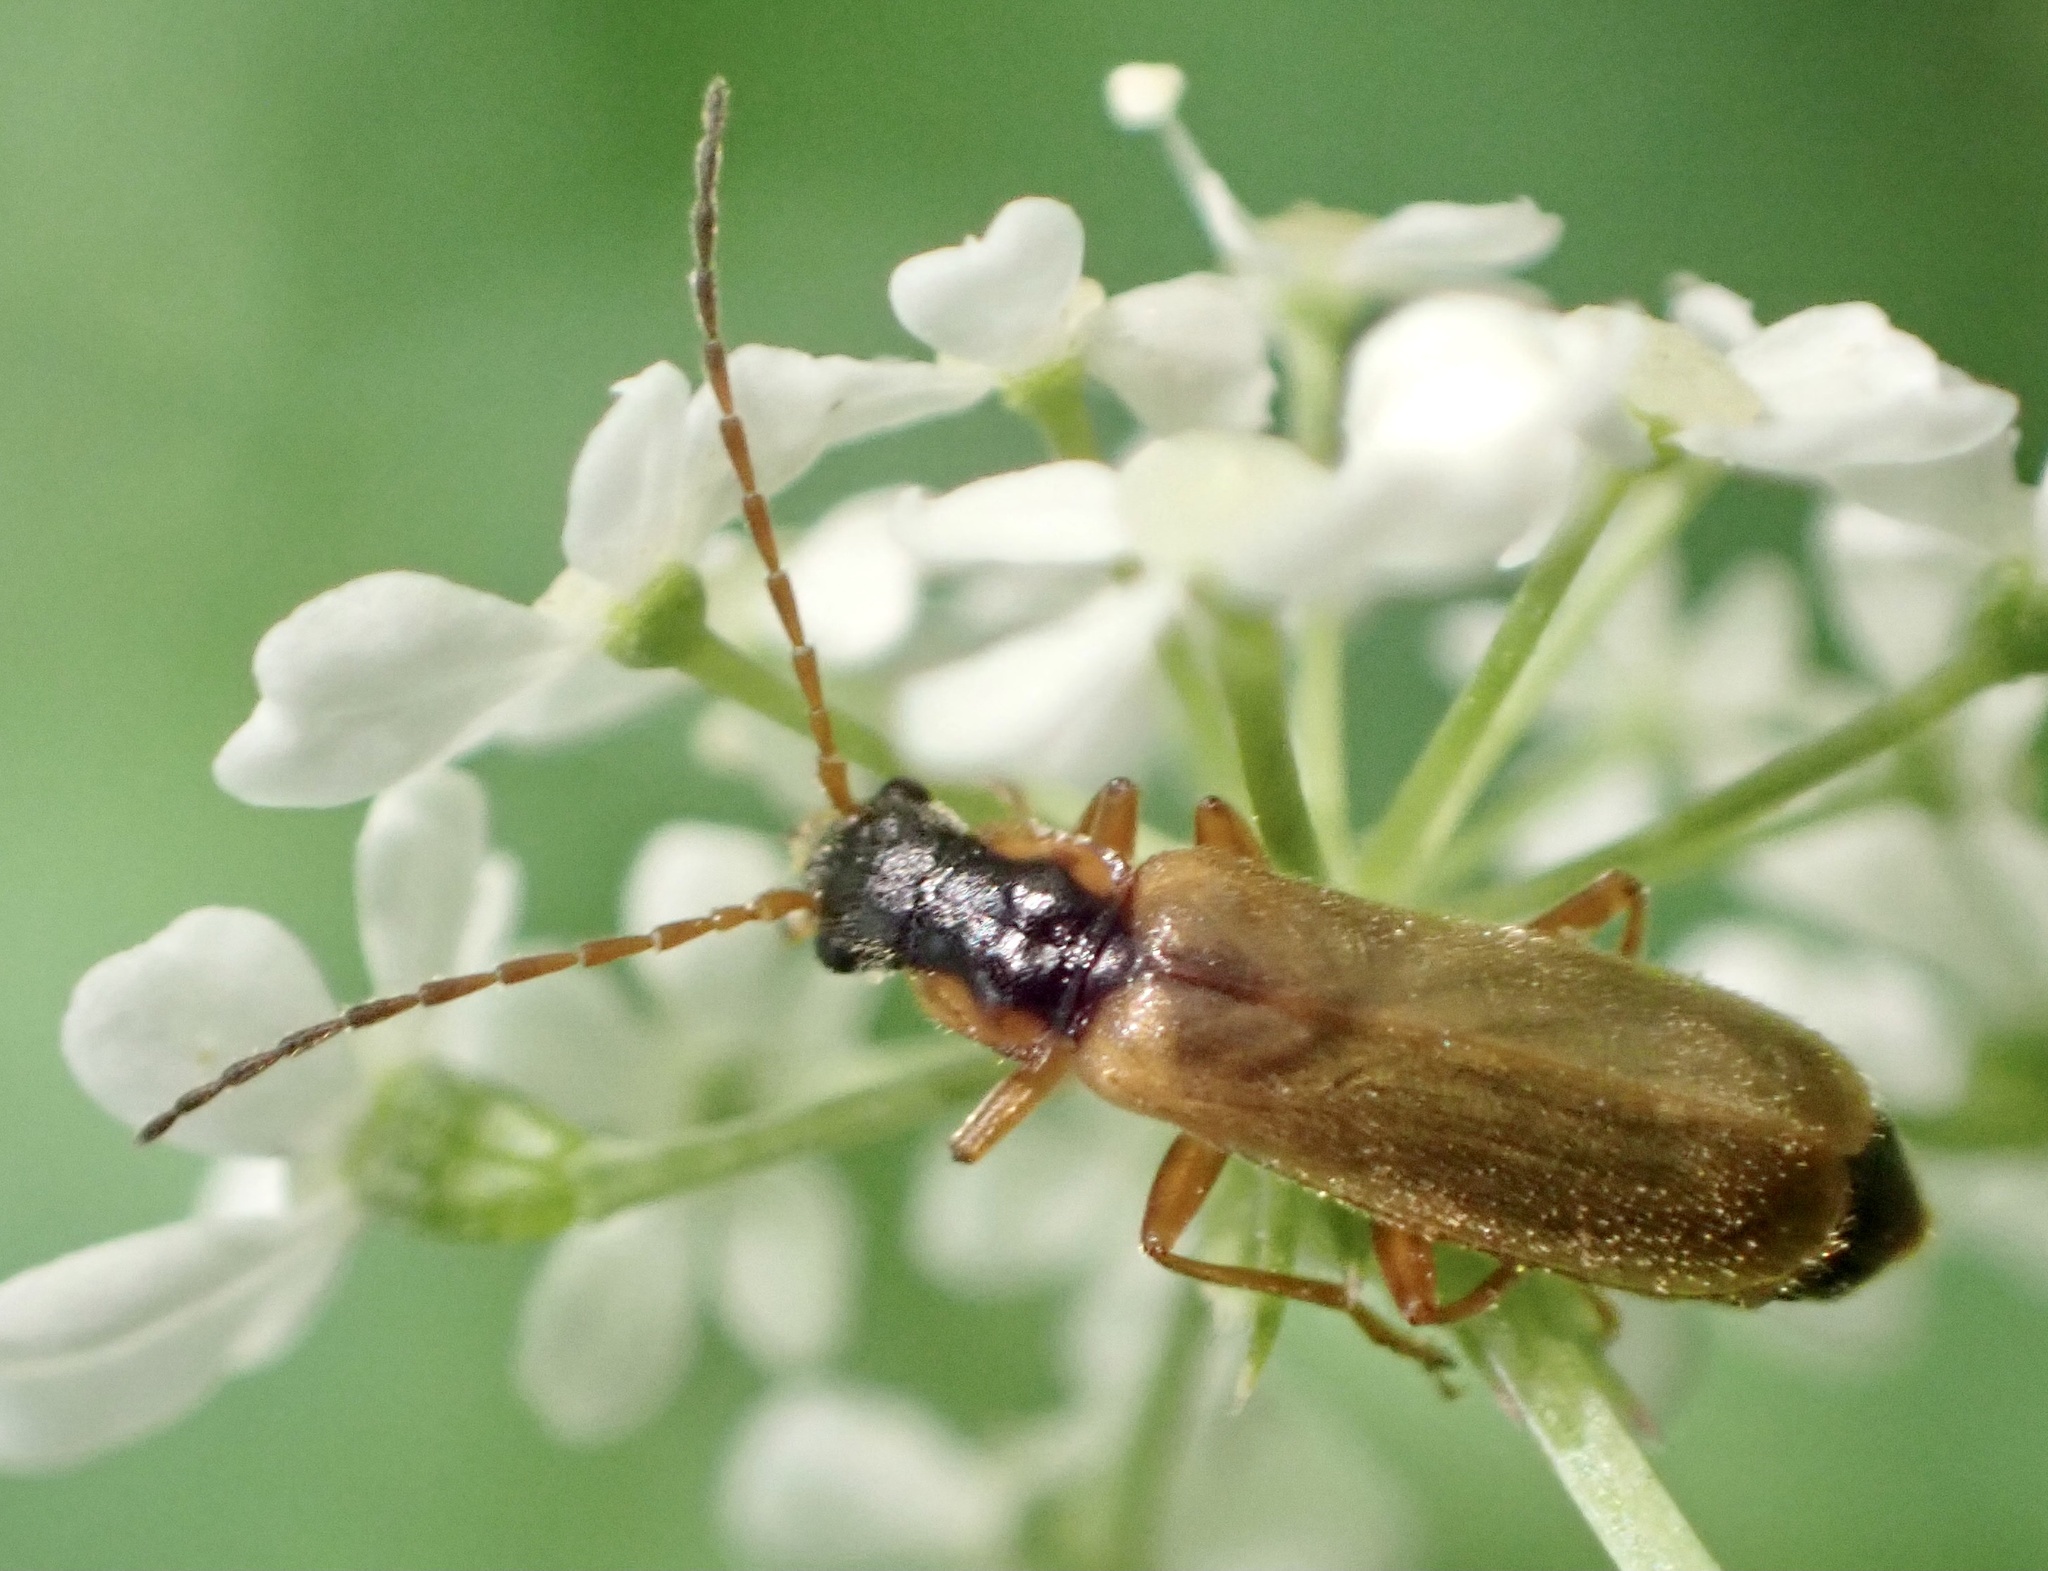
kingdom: Animalia
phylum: Arthropoda
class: Insecta
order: Coleoptera
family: Cantharidae
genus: Rhagonycha
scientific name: Rhagonycha testacea
